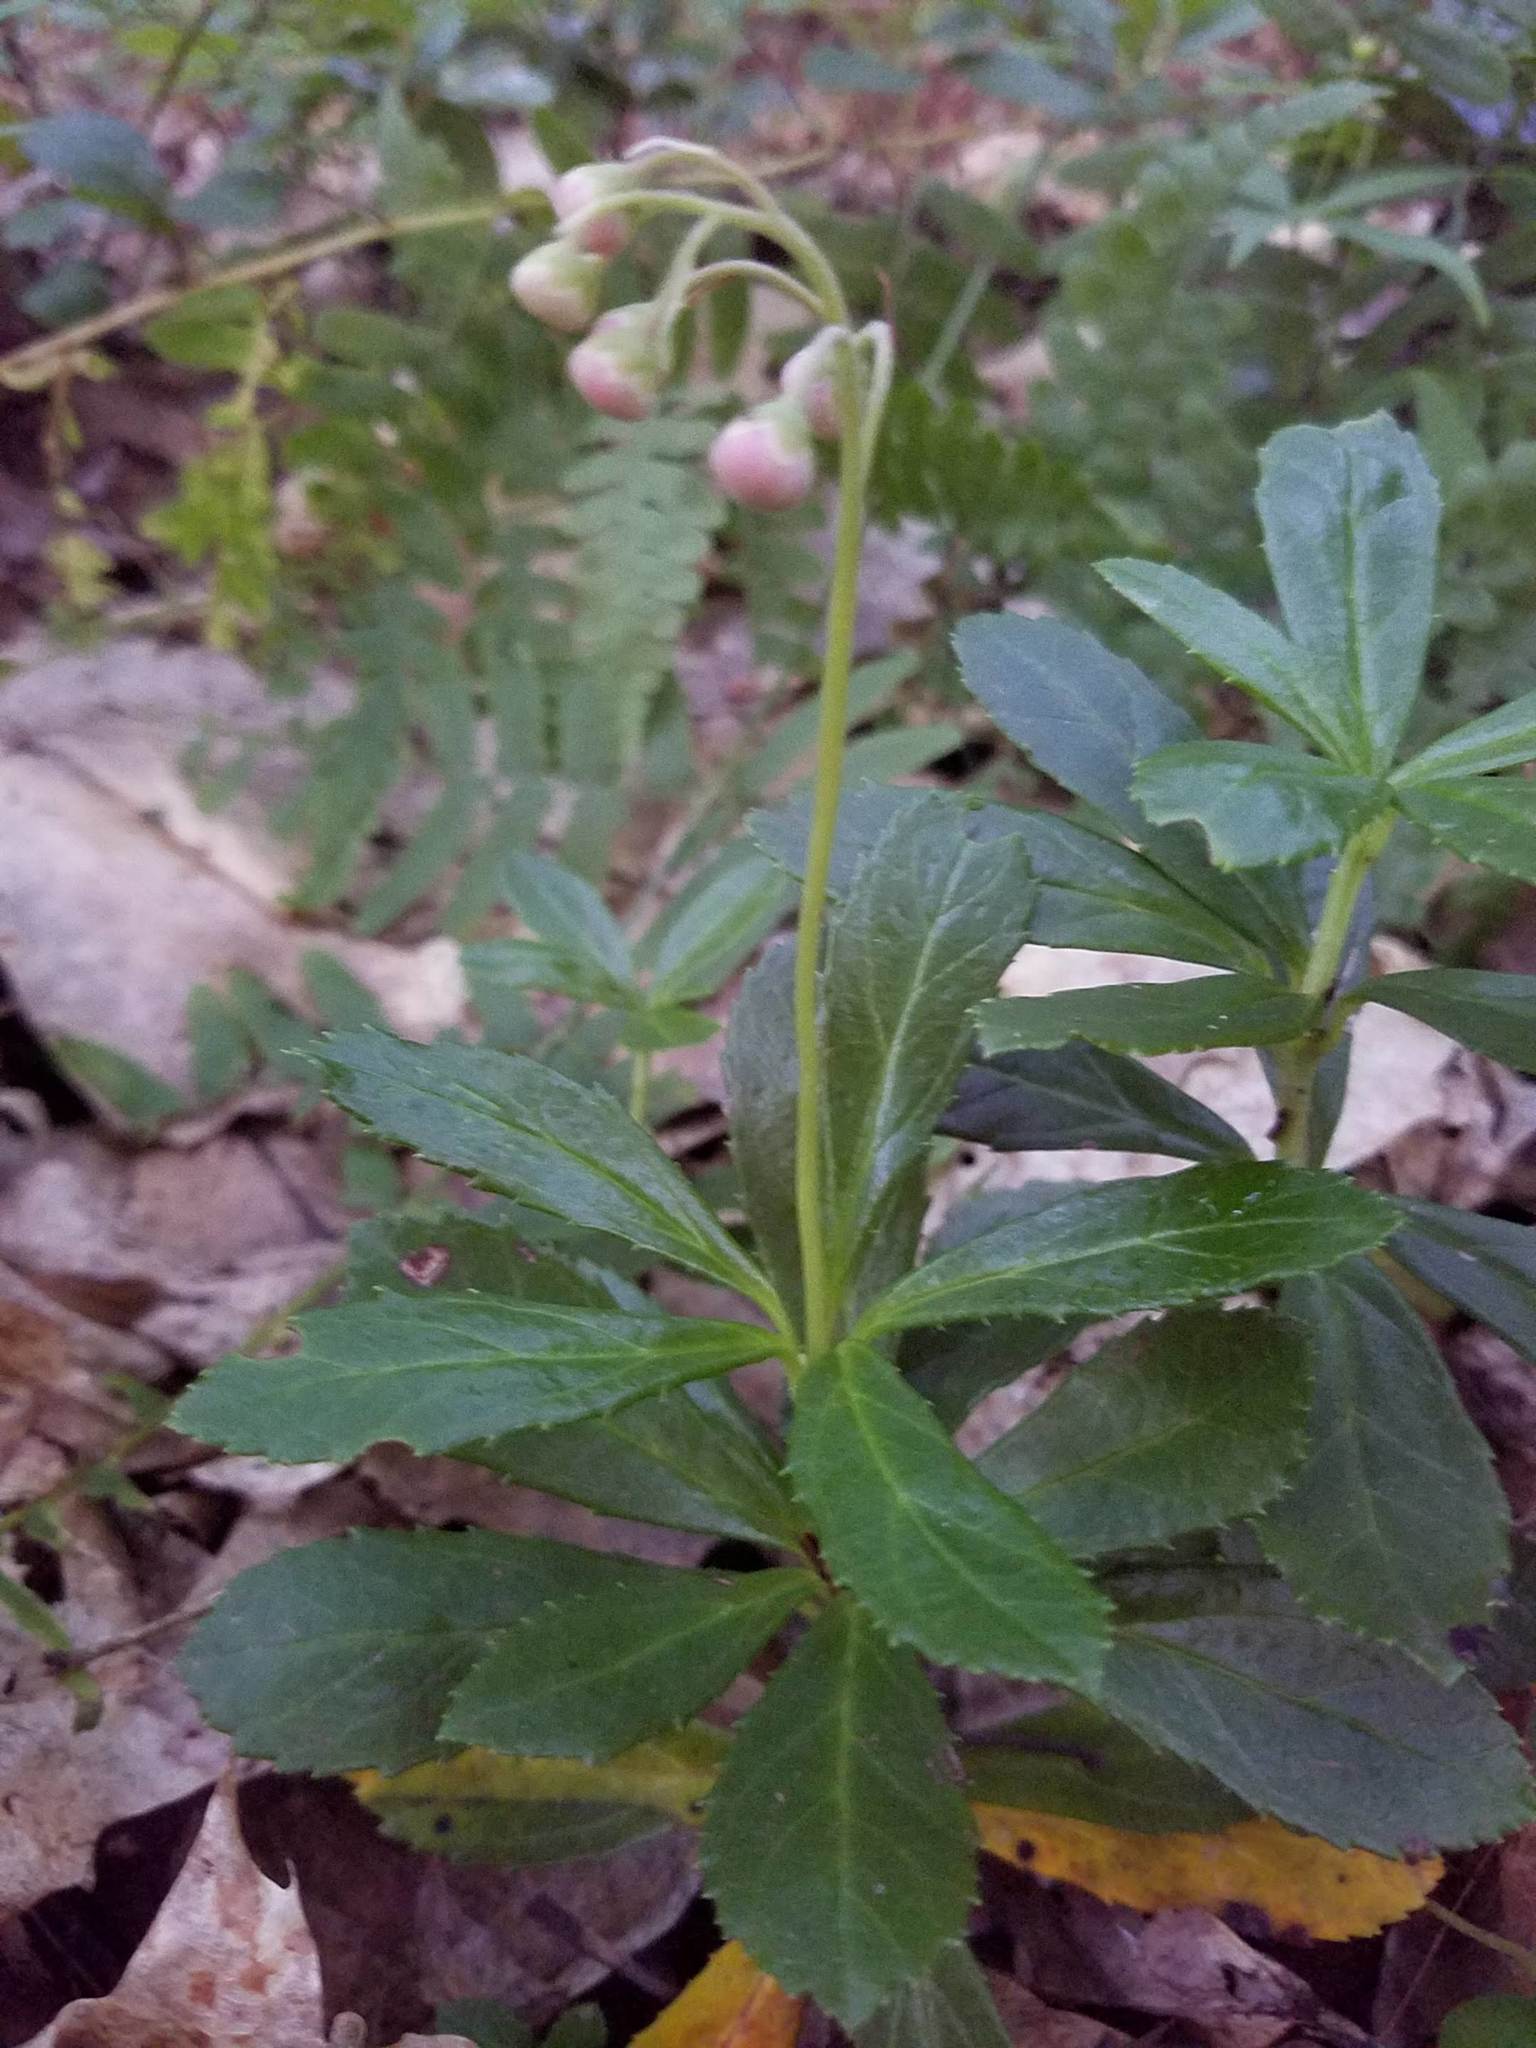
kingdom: Plantae
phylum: Tracheophyta
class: Magnoliopsida
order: Ericales
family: Ericaceae
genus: Chimaphila
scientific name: Chimaphila umbellata
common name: Pipsissewa
